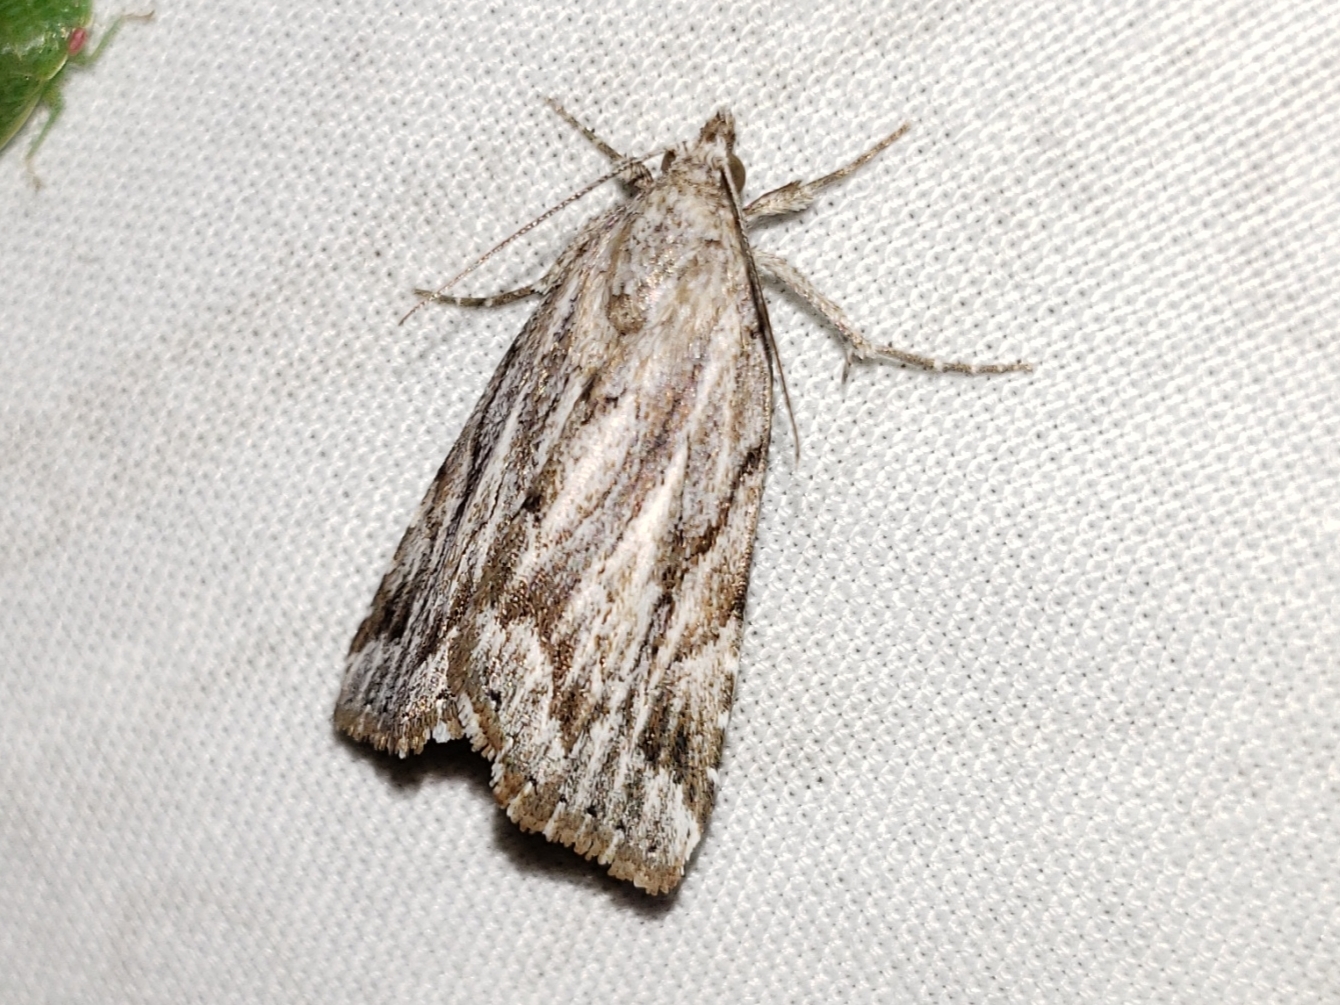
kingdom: Animalia
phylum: Arthropoda
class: Insecta
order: Lepidoptera
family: Erebidae
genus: Cutina
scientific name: Cutina albopunctella
